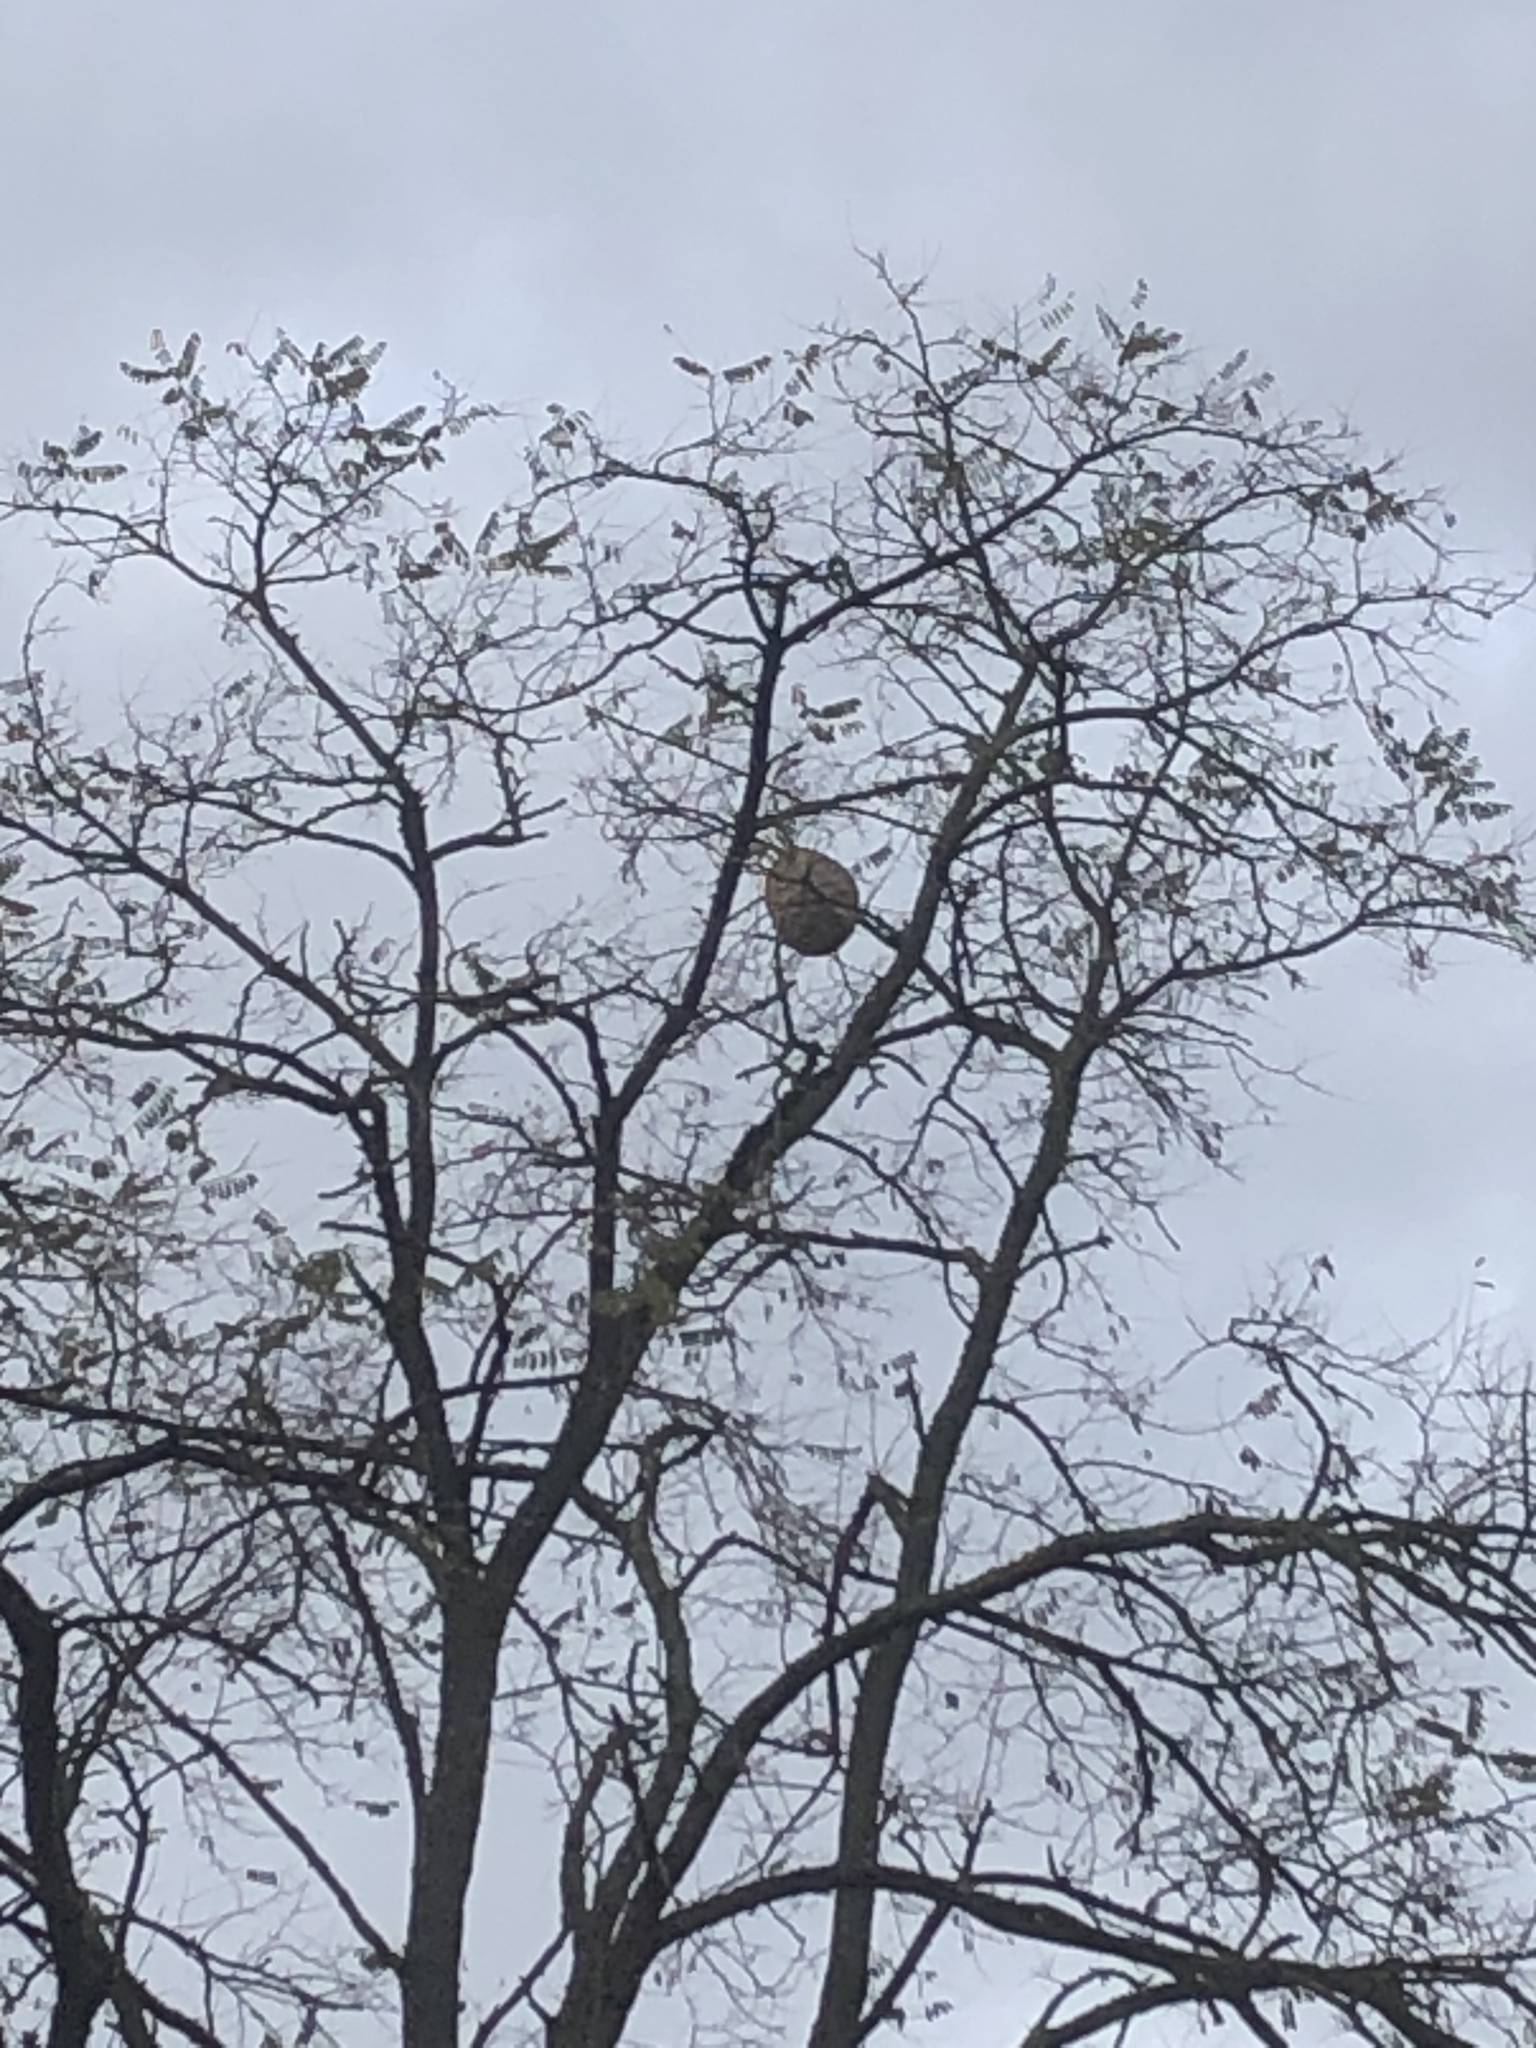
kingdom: Animalia
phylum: Arthropoda
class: Insecta
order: Hymenoptera
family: Vespidae
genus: Vespa
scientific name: Vespa velutina
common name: Asian hornet
